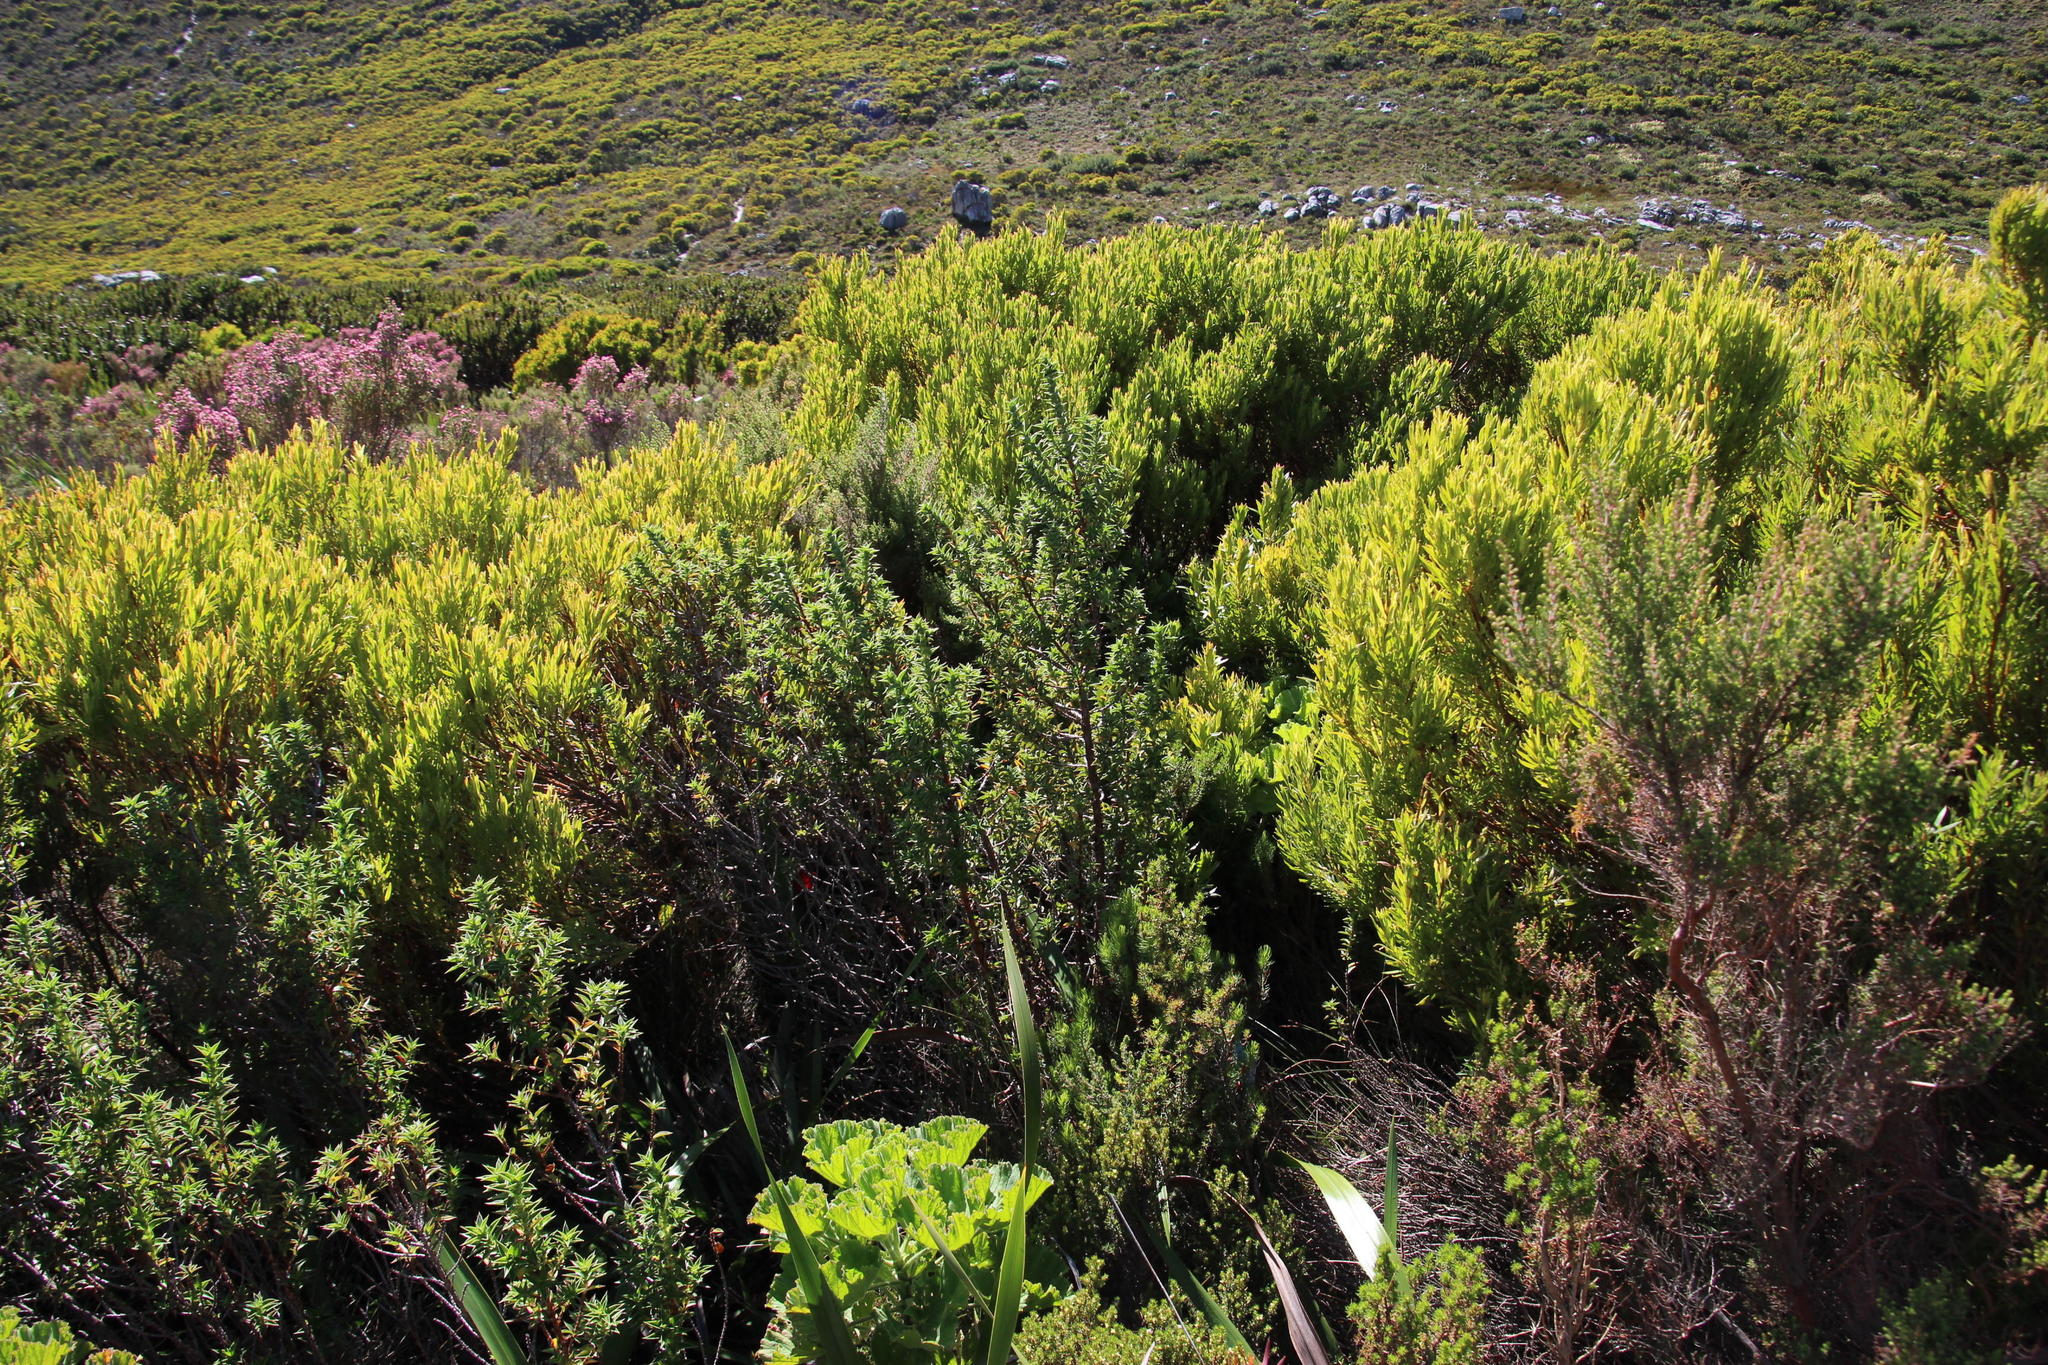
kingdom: Plantae
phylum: Tracheophyta
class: Magnoliopsida
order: Rosales
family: Rosaceae
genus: Cliffortia
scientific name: Cliffortia integerrima
